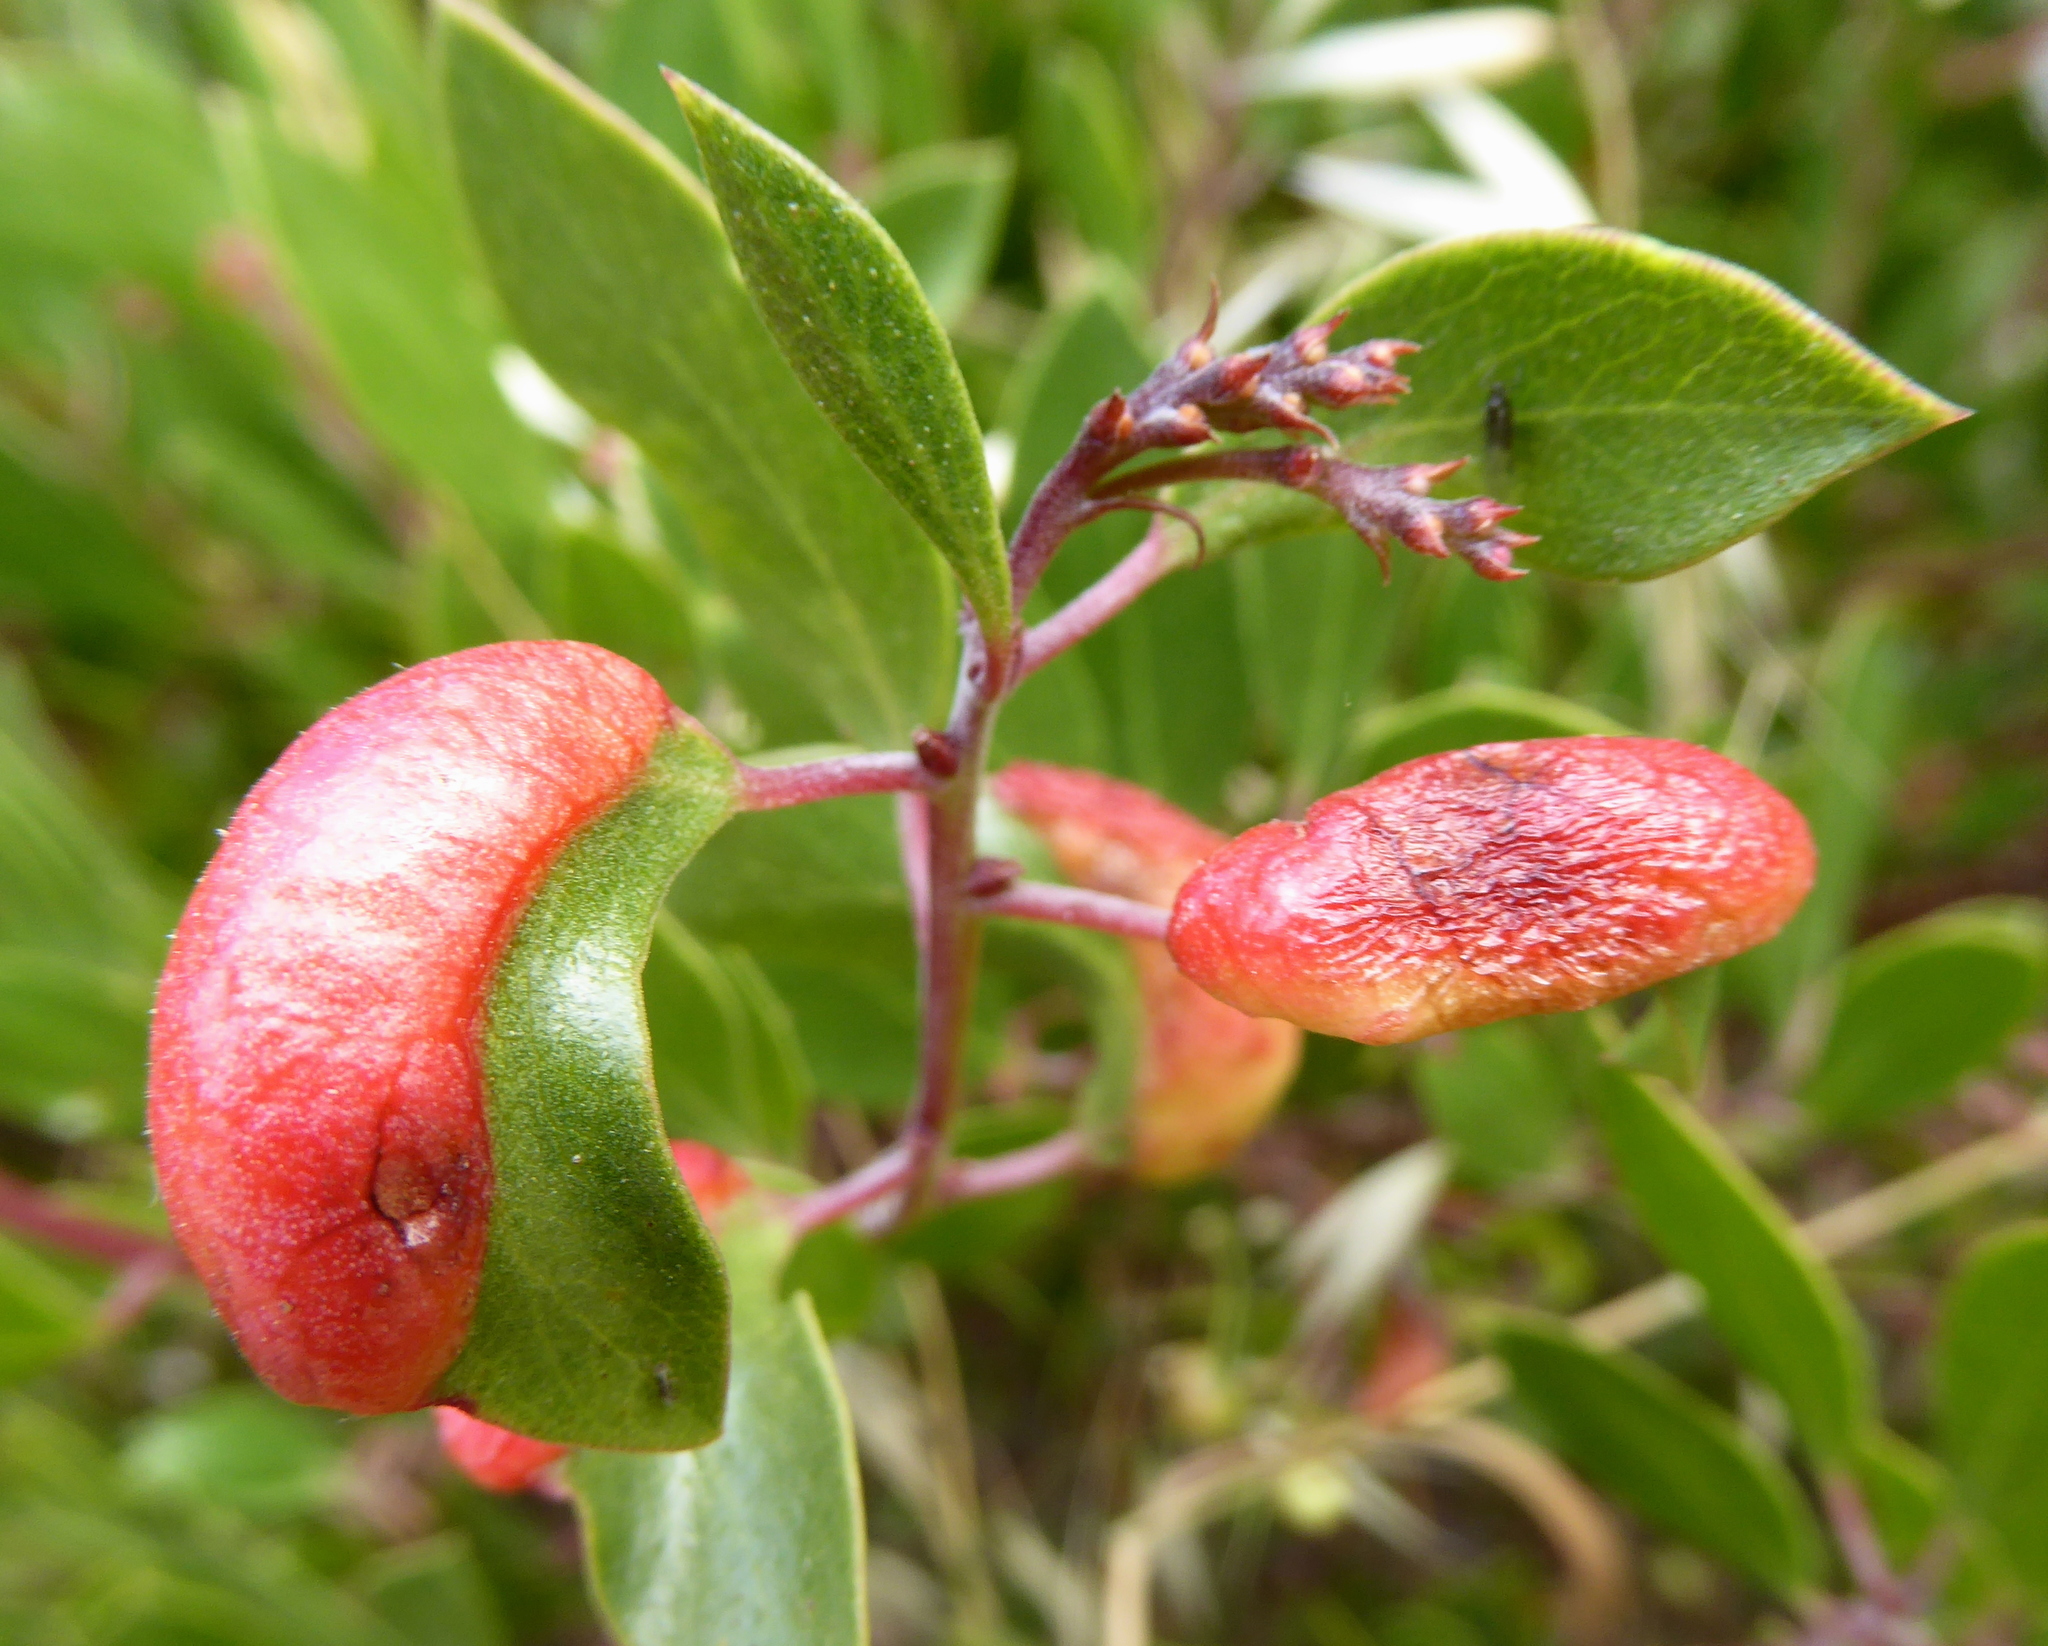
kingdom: Animalia
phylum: Arthropoda
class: Insecta
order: Hemiptera
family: Aphididae
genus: Tamalia
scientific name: Tamalia coweni
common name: Manzanita leafgall aphid
